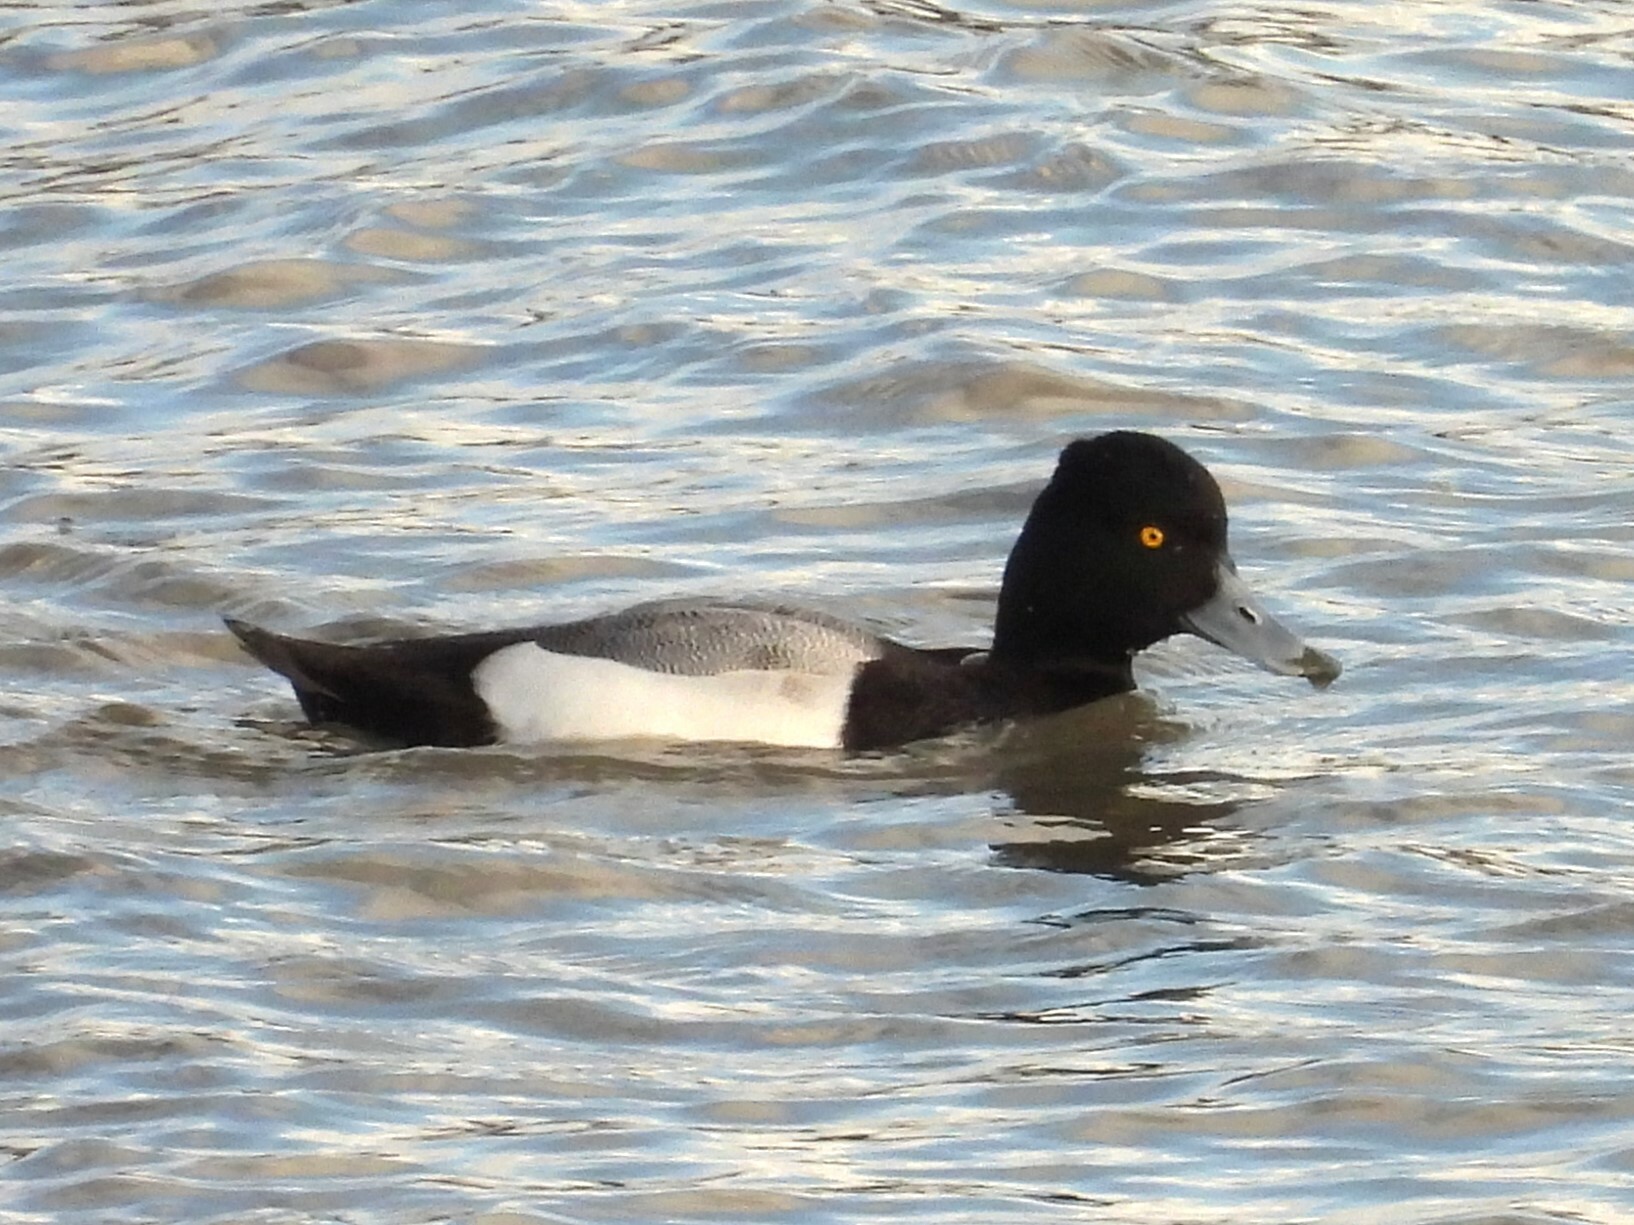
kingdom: Animalia
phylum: Chordata
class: Aves
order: Anseriformes
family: Anatidae
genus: Aythya
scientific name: Aythya affinis
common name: Lesser scaup
